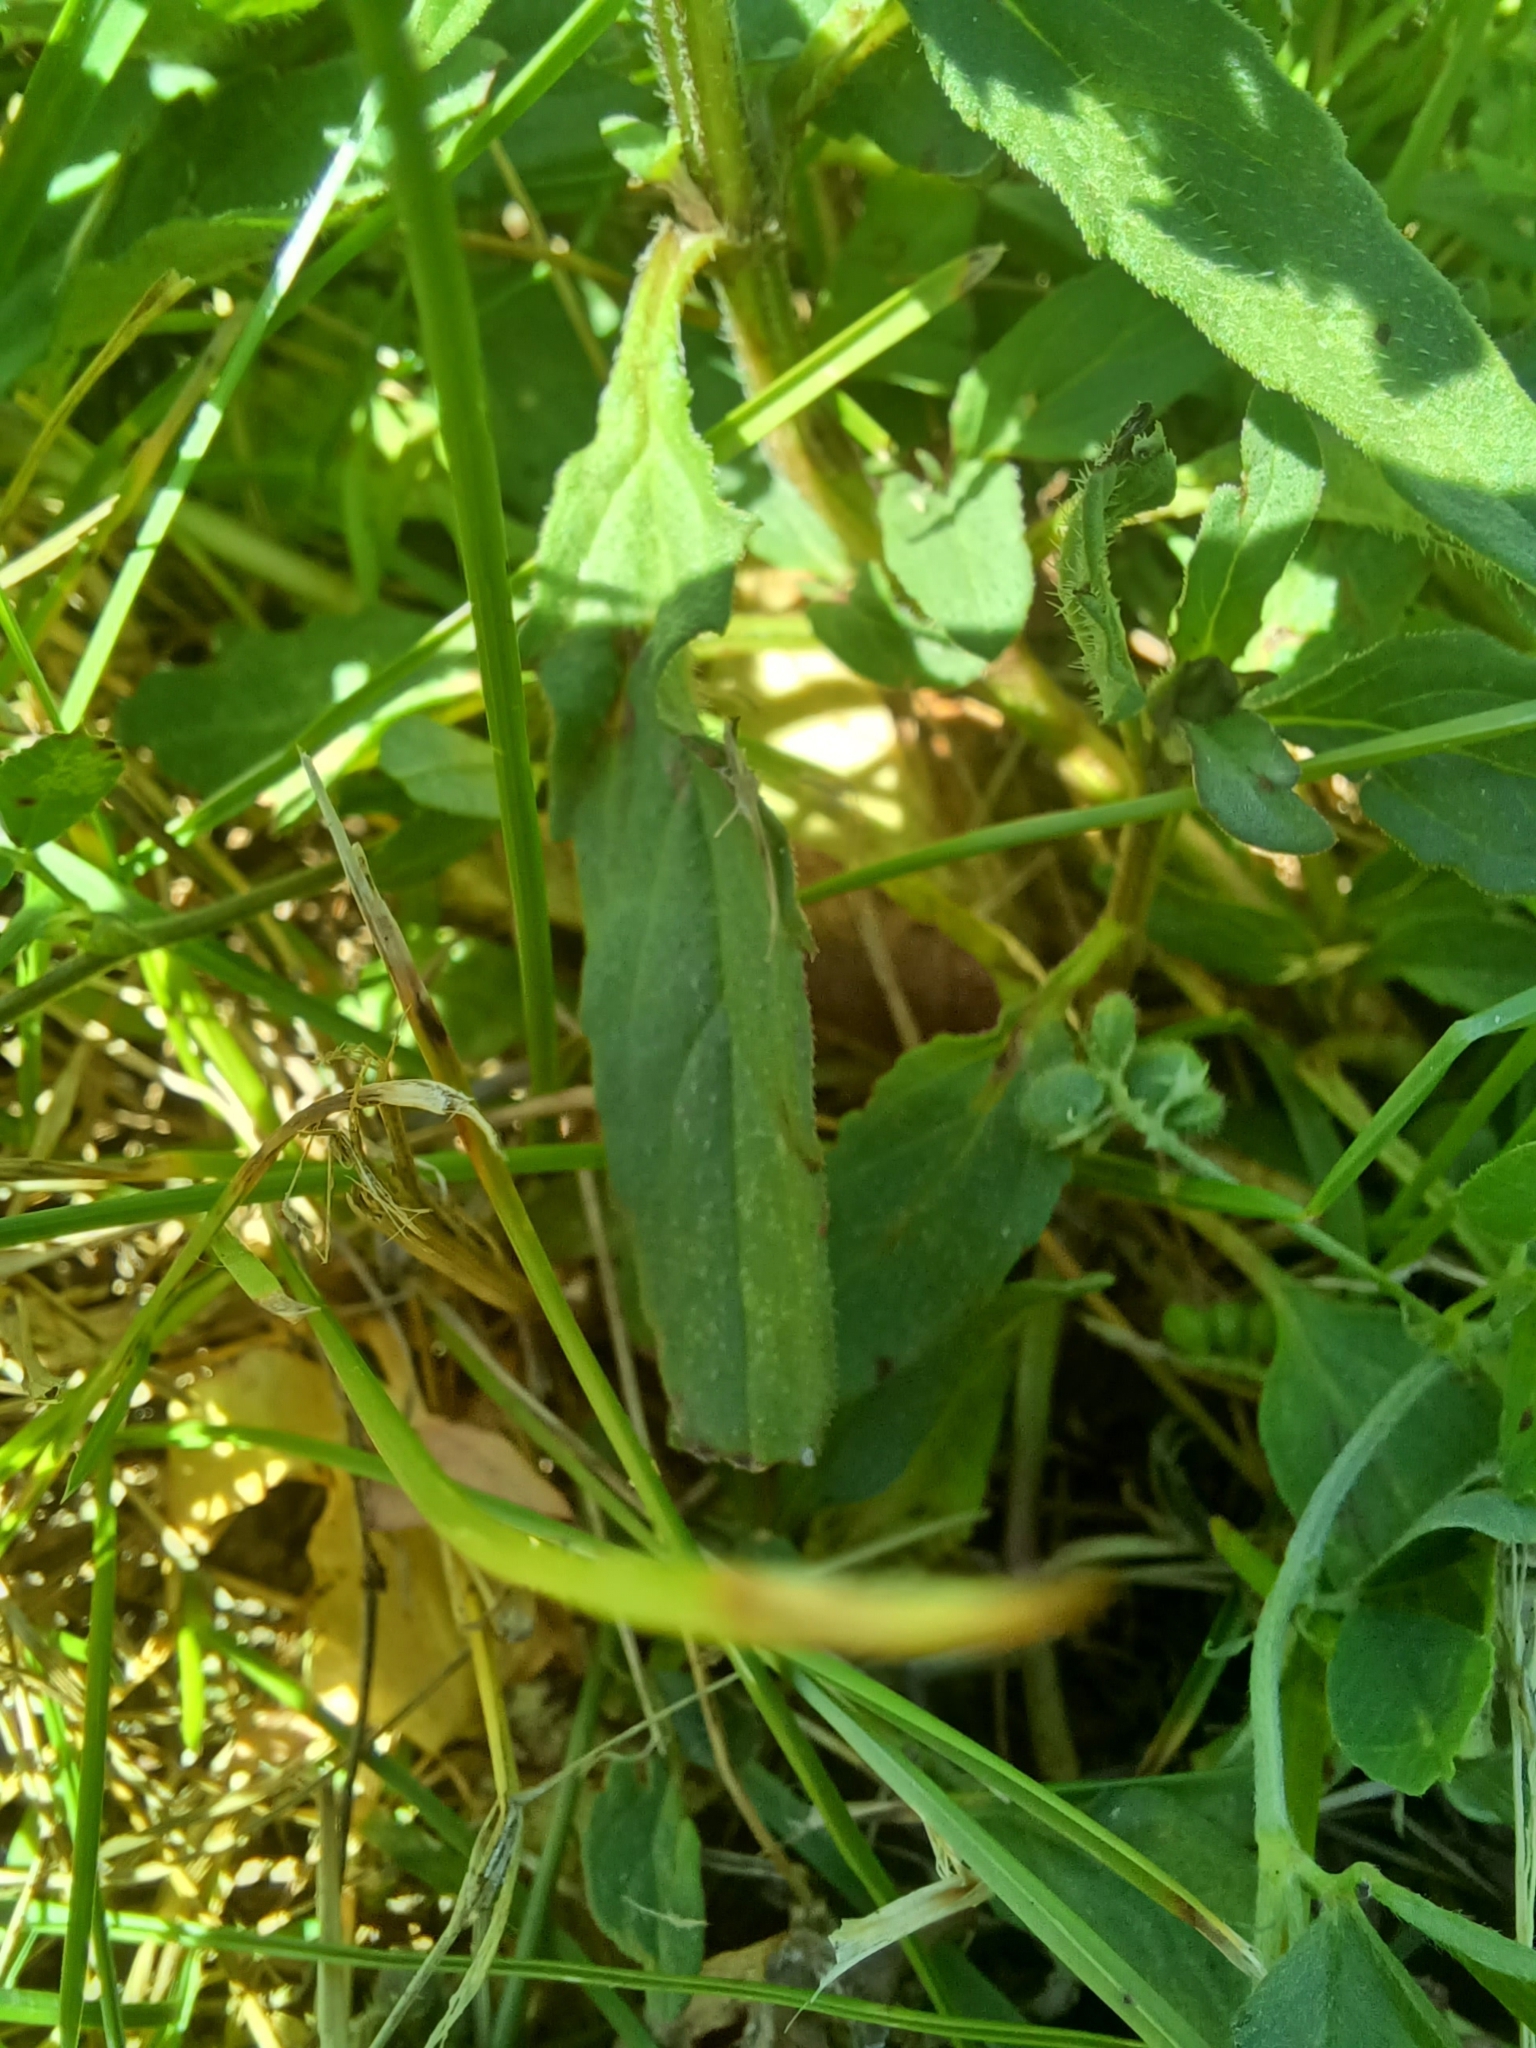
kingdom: Plantae
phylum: Tracheophyta
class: Magnoliopsida
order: Lamiales
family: Lamiaceae
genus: Prunella
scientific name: Prunella vulgaris
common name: Heal-all
